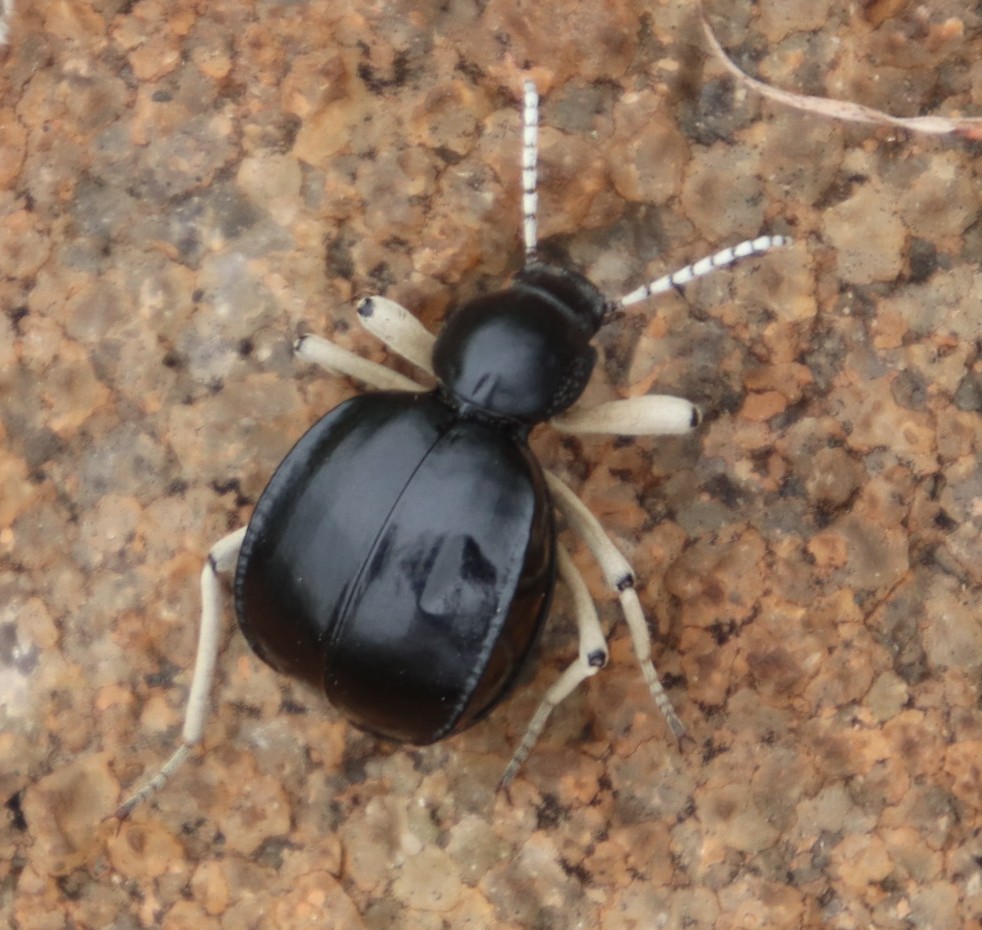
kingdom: Animalia
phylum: Arthropoda
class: Insecta
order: Coleoptera
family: Tenebrionidae
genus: Dichtha
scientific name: Dichtha cubica
